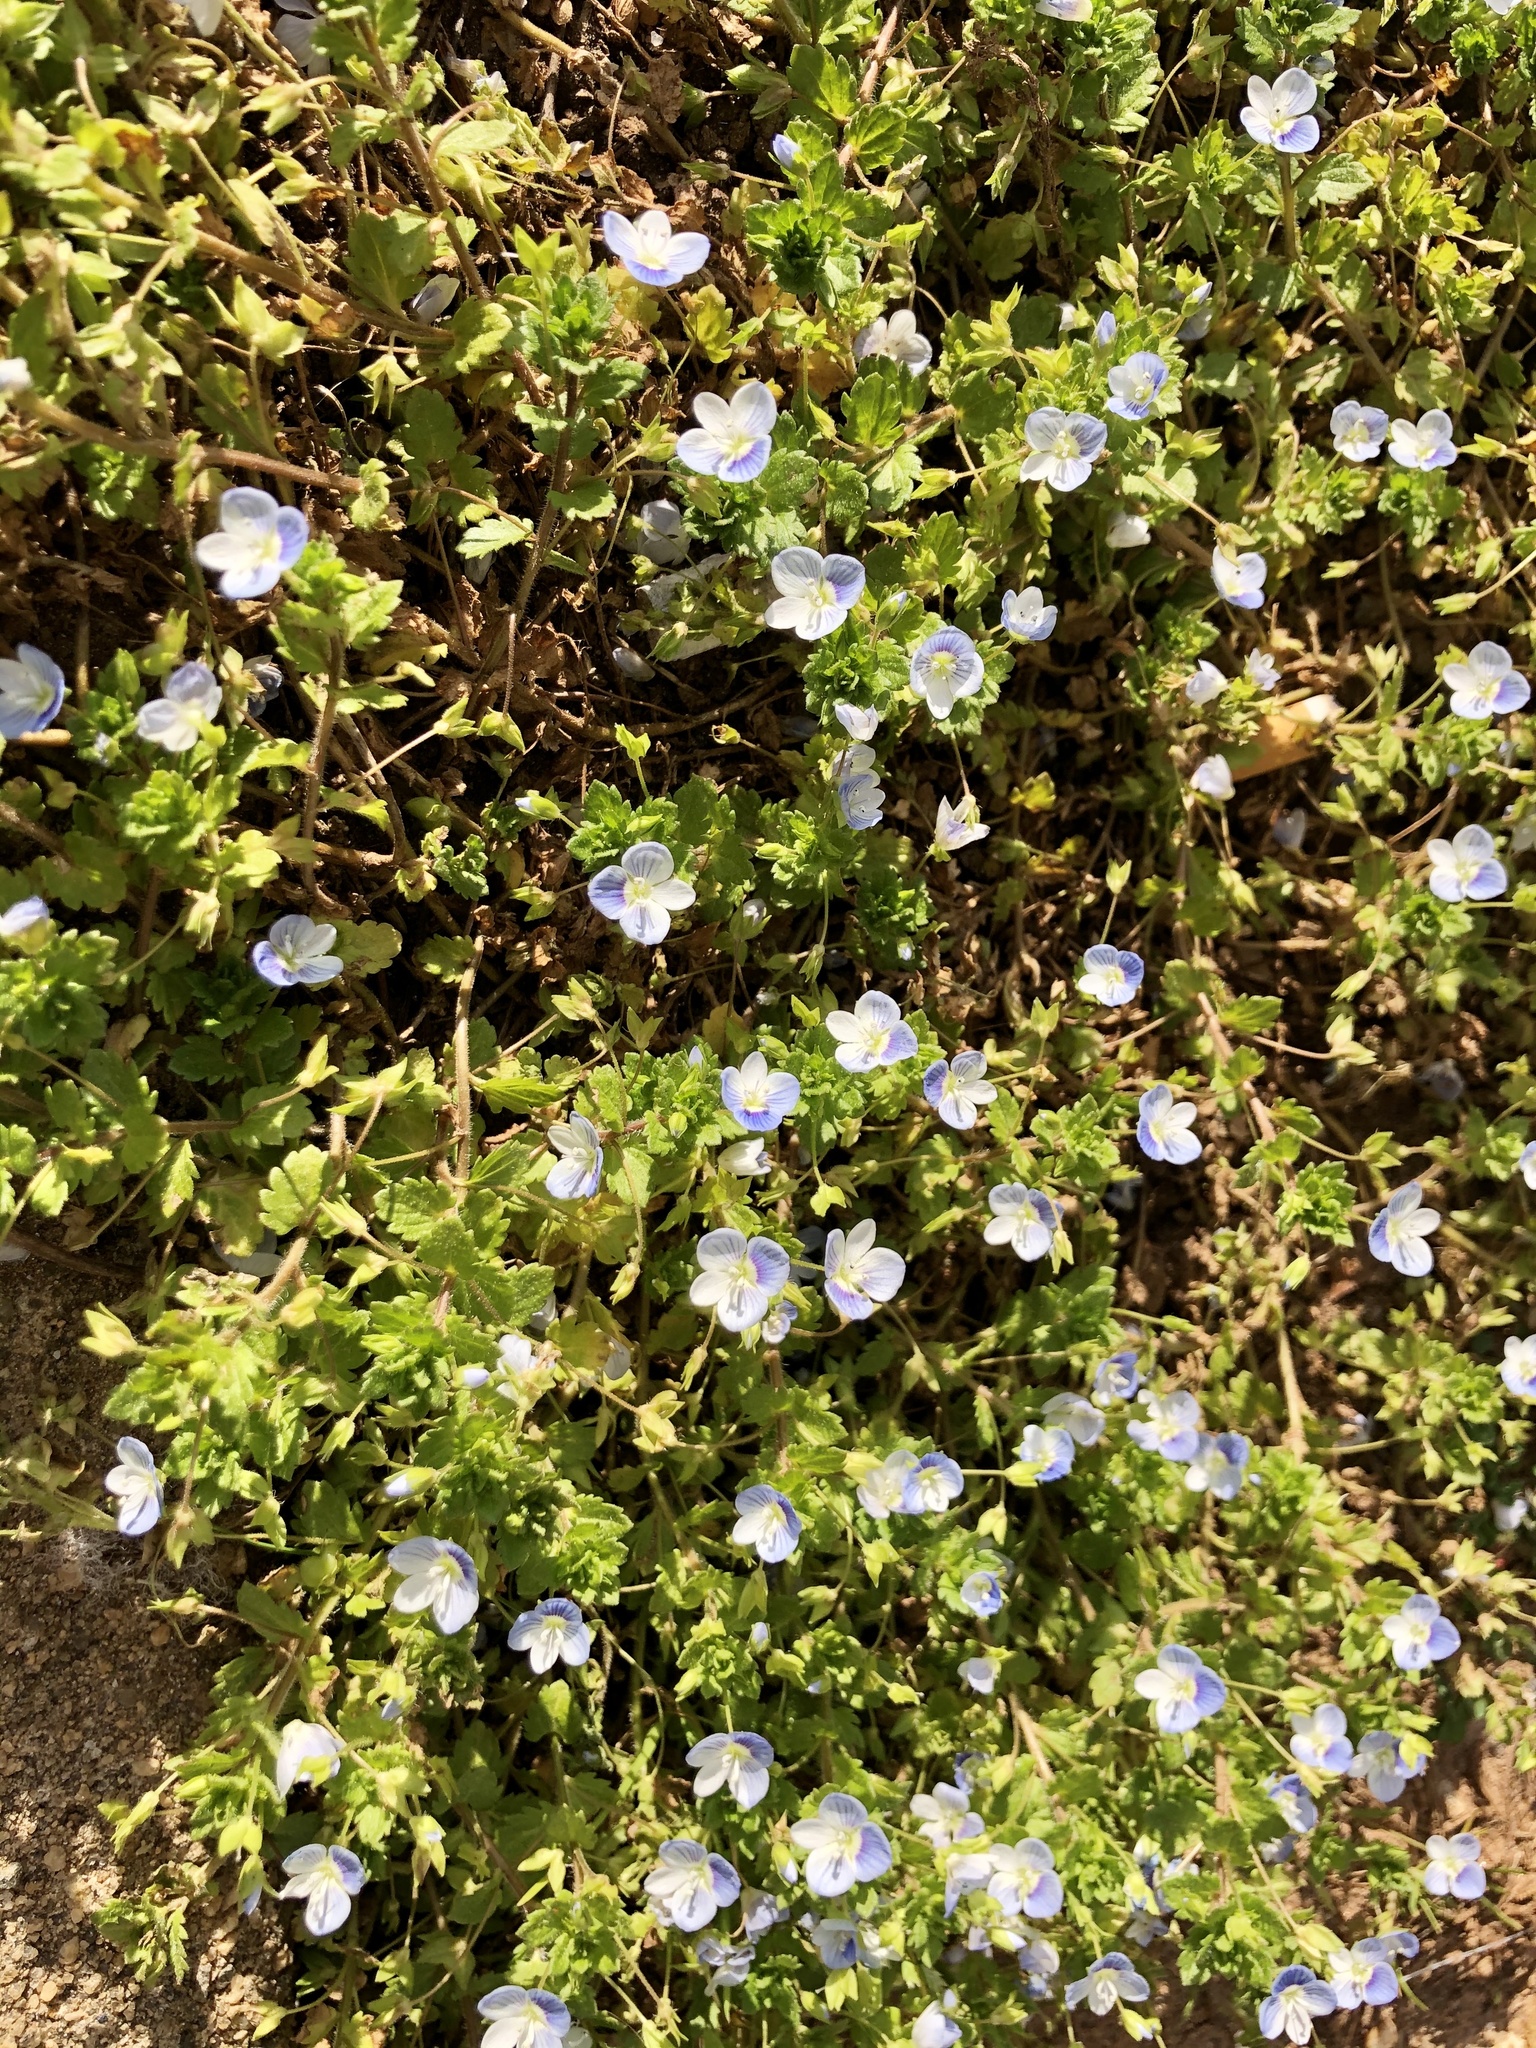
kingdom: Plantae
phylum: Tracheophyta
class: Magnoliopsida
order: Lamiales
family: Plantaginaceae
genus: Veronica
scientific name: Veronica persica
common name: Common field-speedwell
